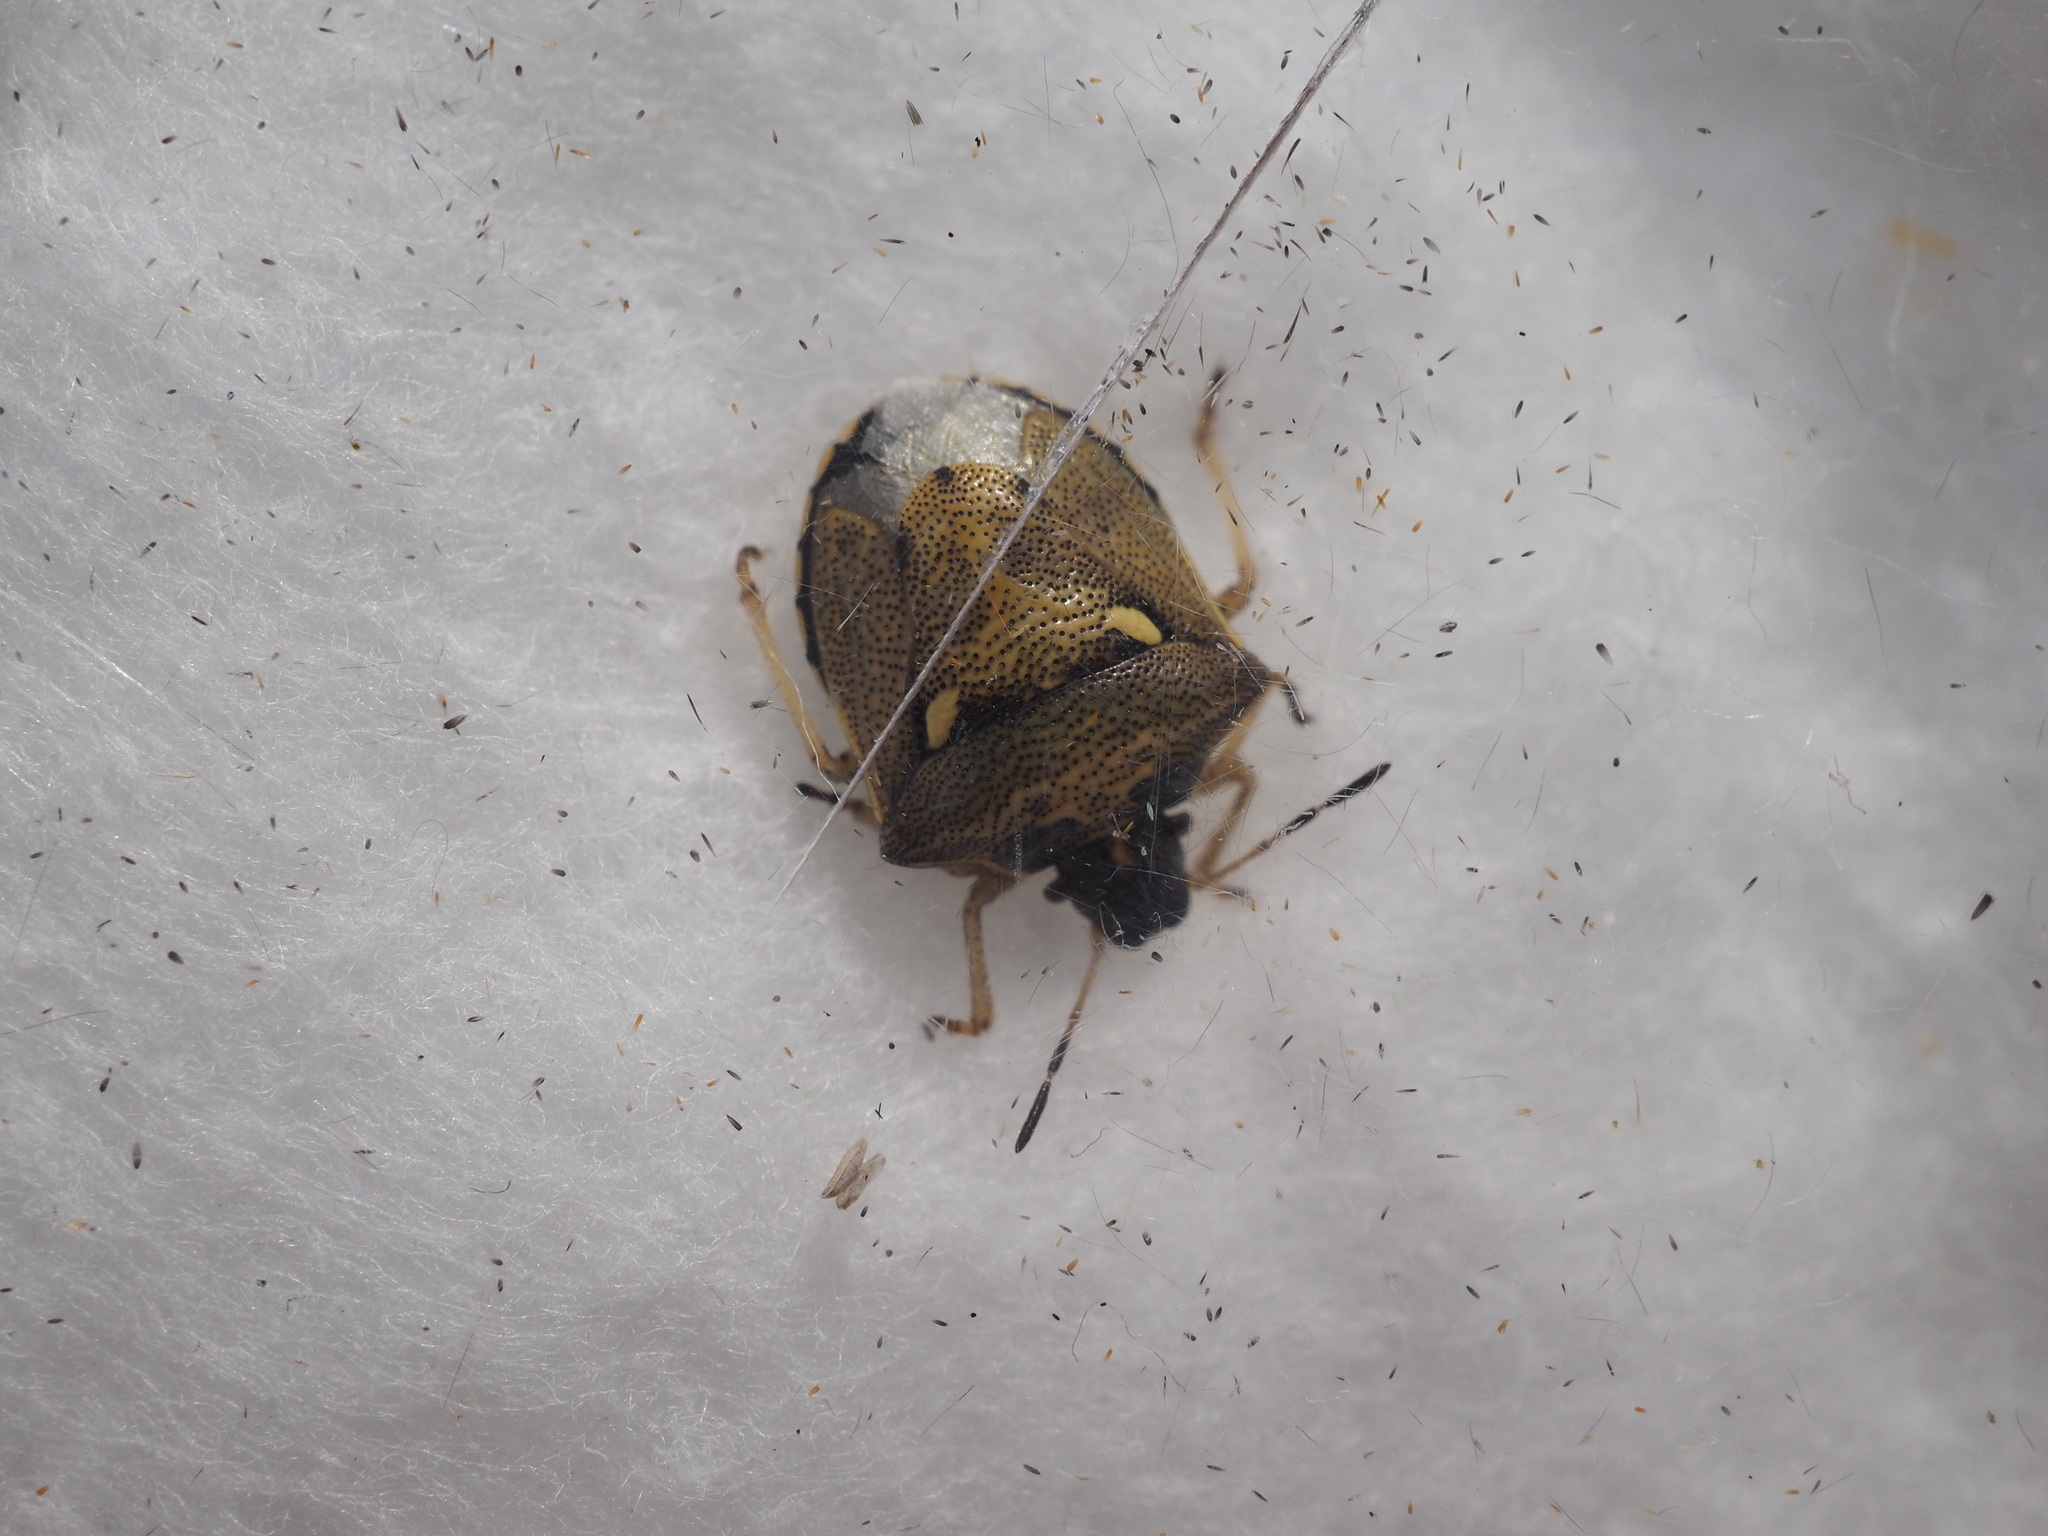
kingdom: Animalia
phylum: Arthropoda
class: Insecta
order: Hemiptera
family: Pentatomidae
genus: Eysarcoris
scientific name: Eysarcoris aeneus
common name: New forest shieldbug
